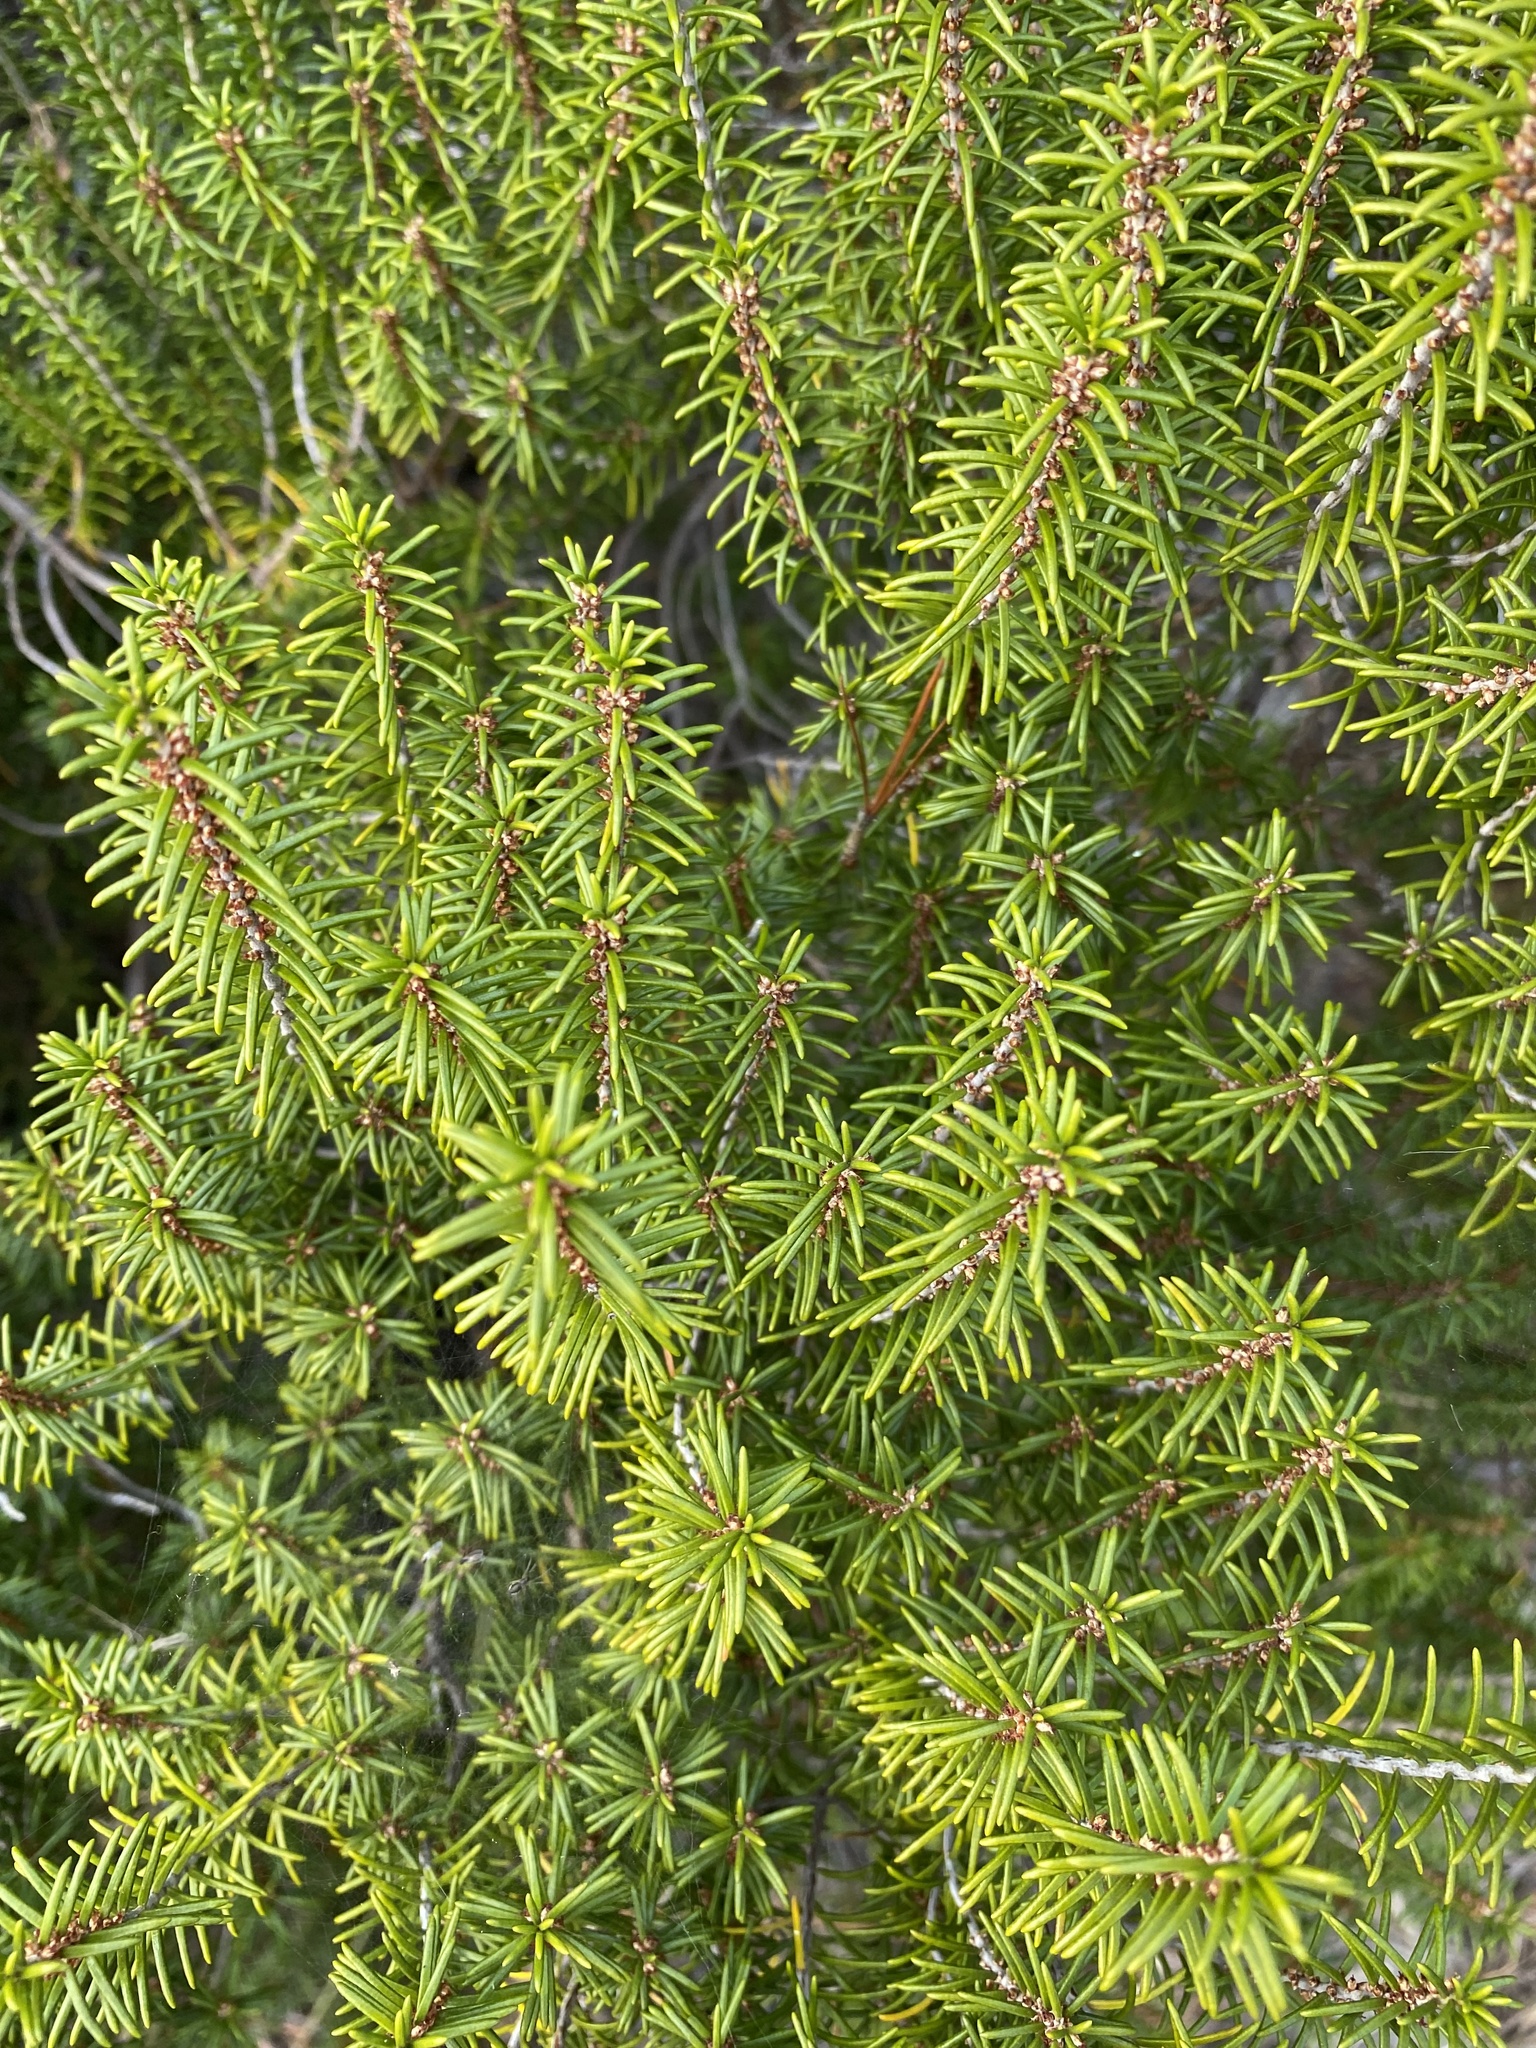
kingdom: Plantae
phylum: Tracheophyta
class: Magnoliopsida
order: Ericales
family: Ericaceae
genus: Ceratiola
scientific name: Ceratiola ericoides
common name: Sandhill-rosemary
